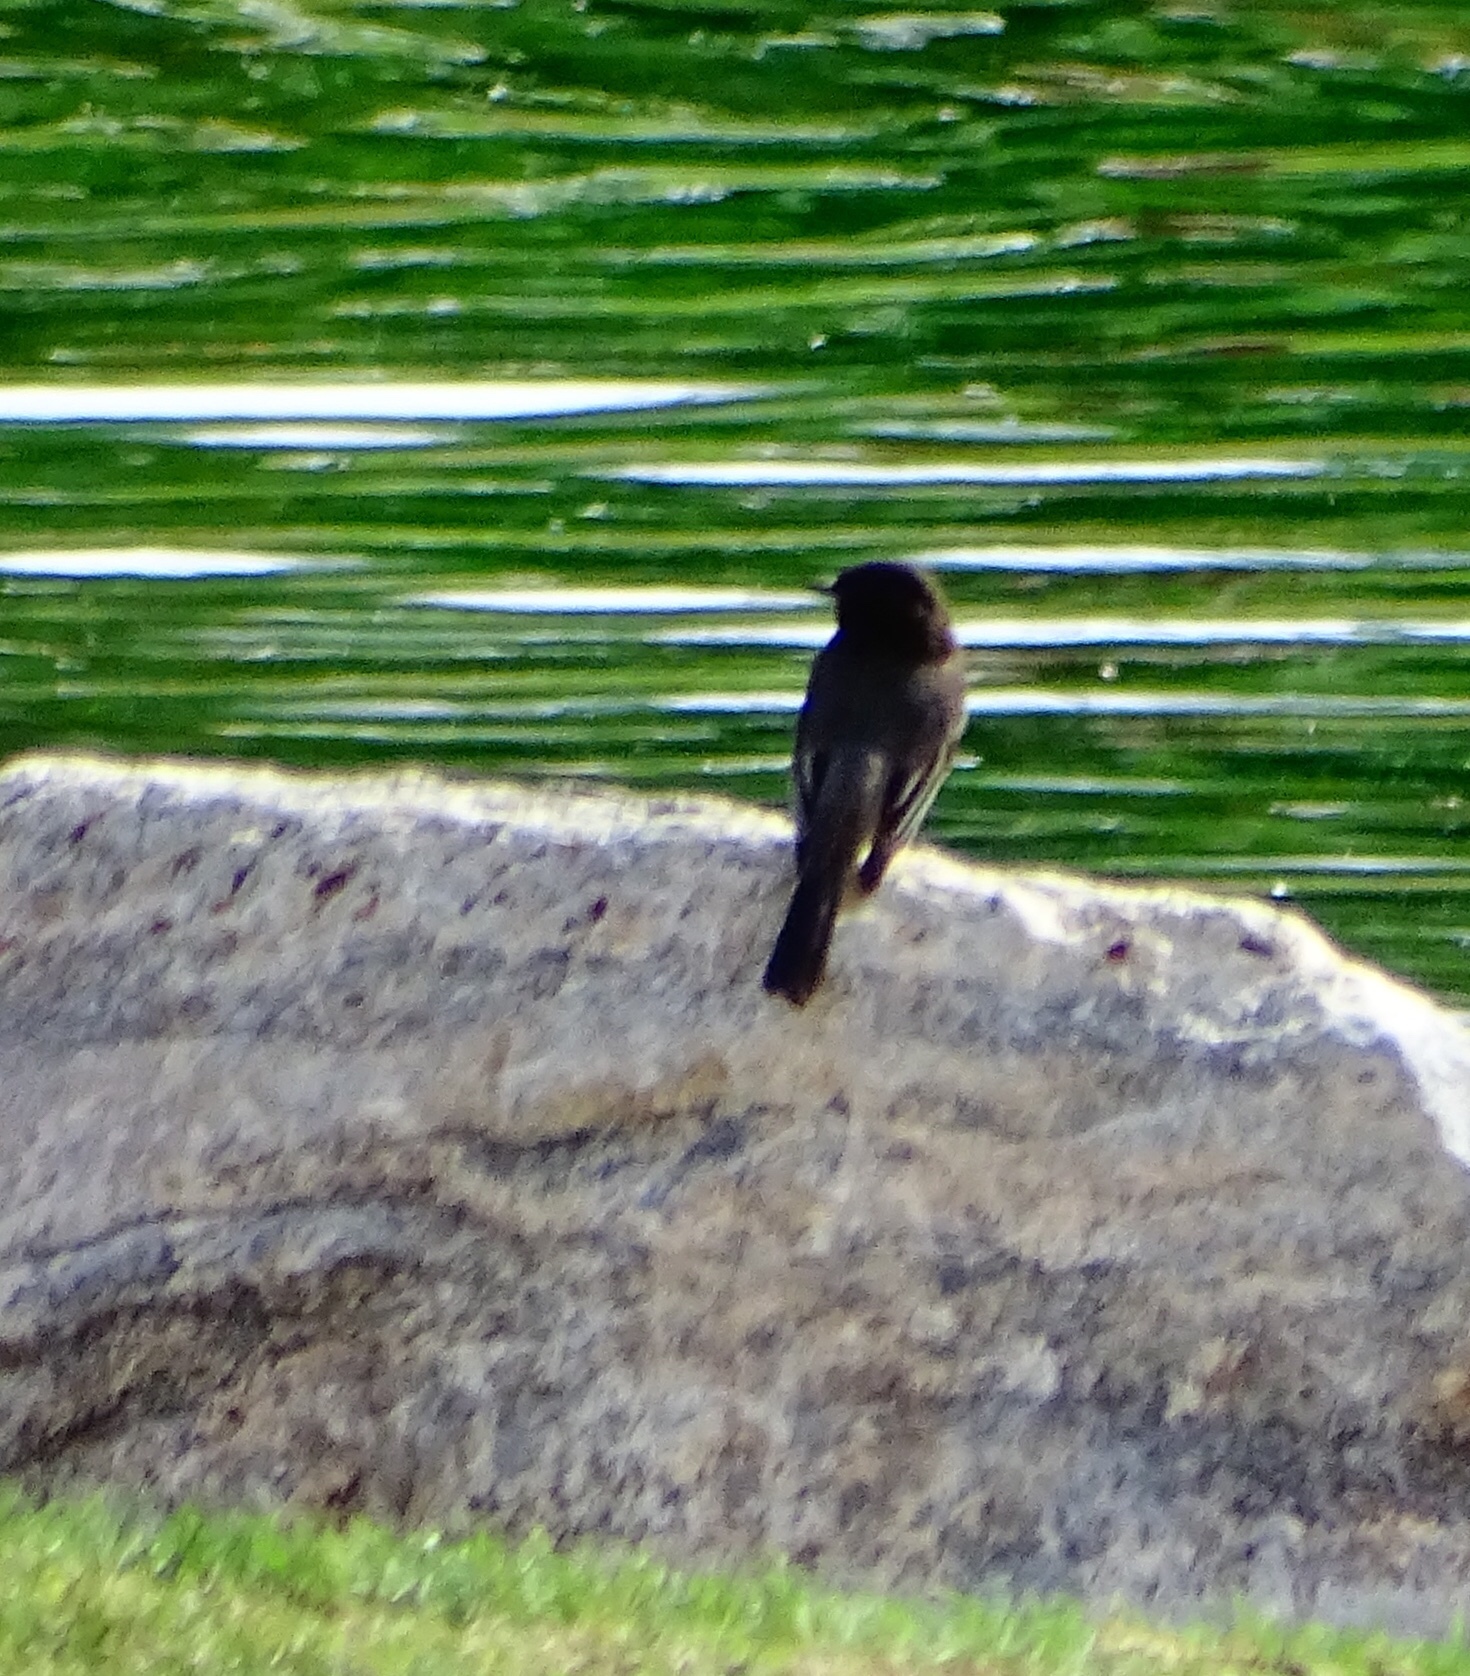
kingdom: Animalia
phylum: Chordata
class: Aves
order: Passeriformes
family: Tyrannidae
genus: Sayornis
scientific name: Sayornis nigricans
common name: Black phoebe
